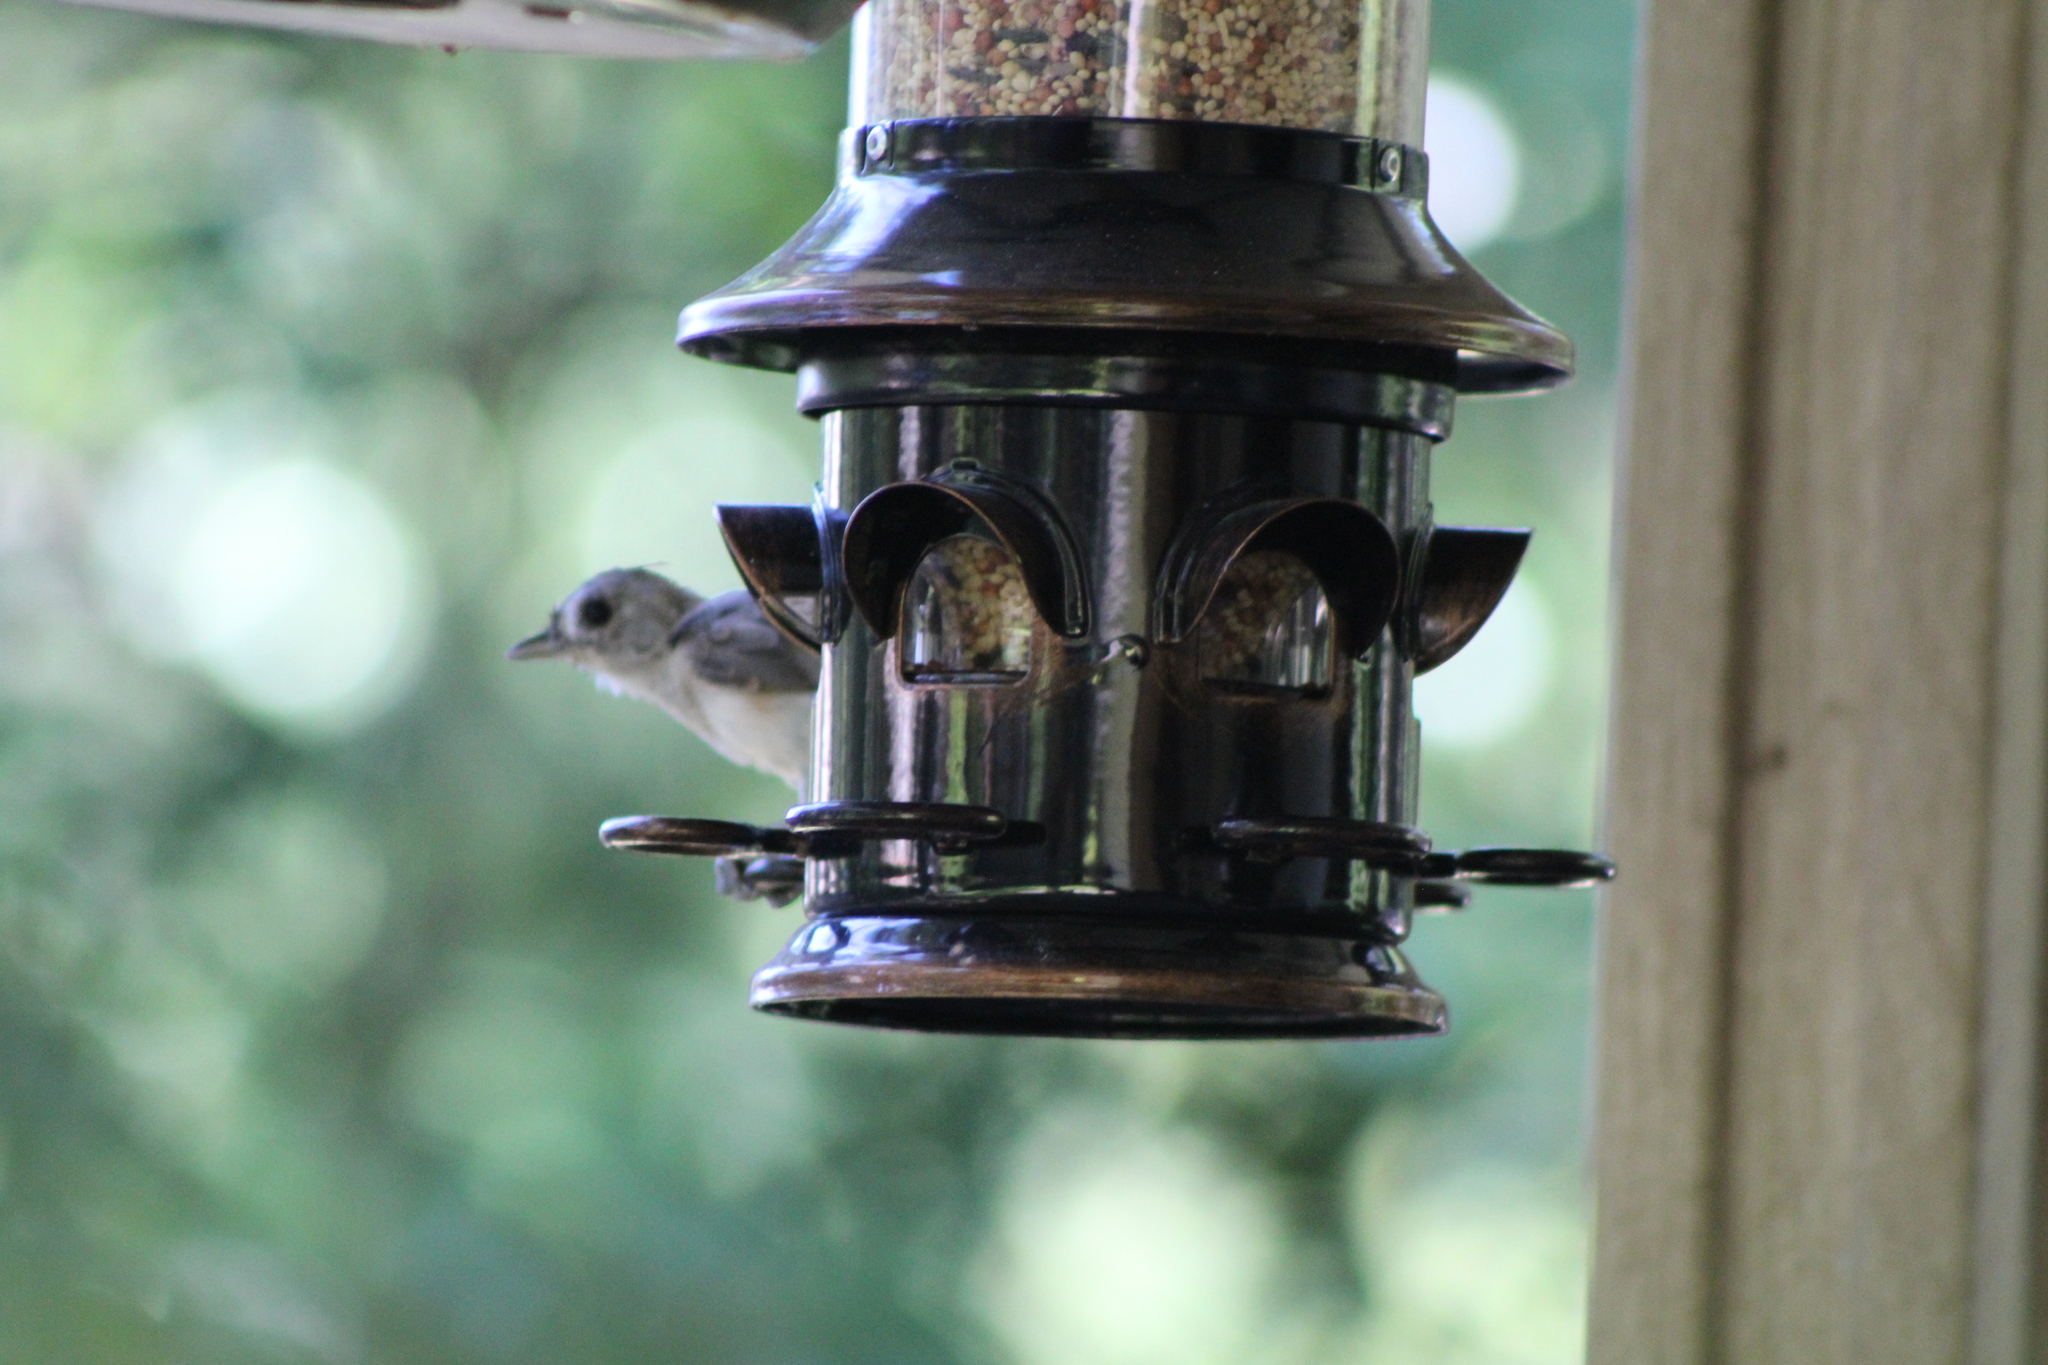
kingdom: Animalia
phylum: Chordata
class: Aves
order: Passeriformes
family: Paridae
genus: Baeolophus
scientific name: Baeolophus bicolor
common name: Tufted titmouse
